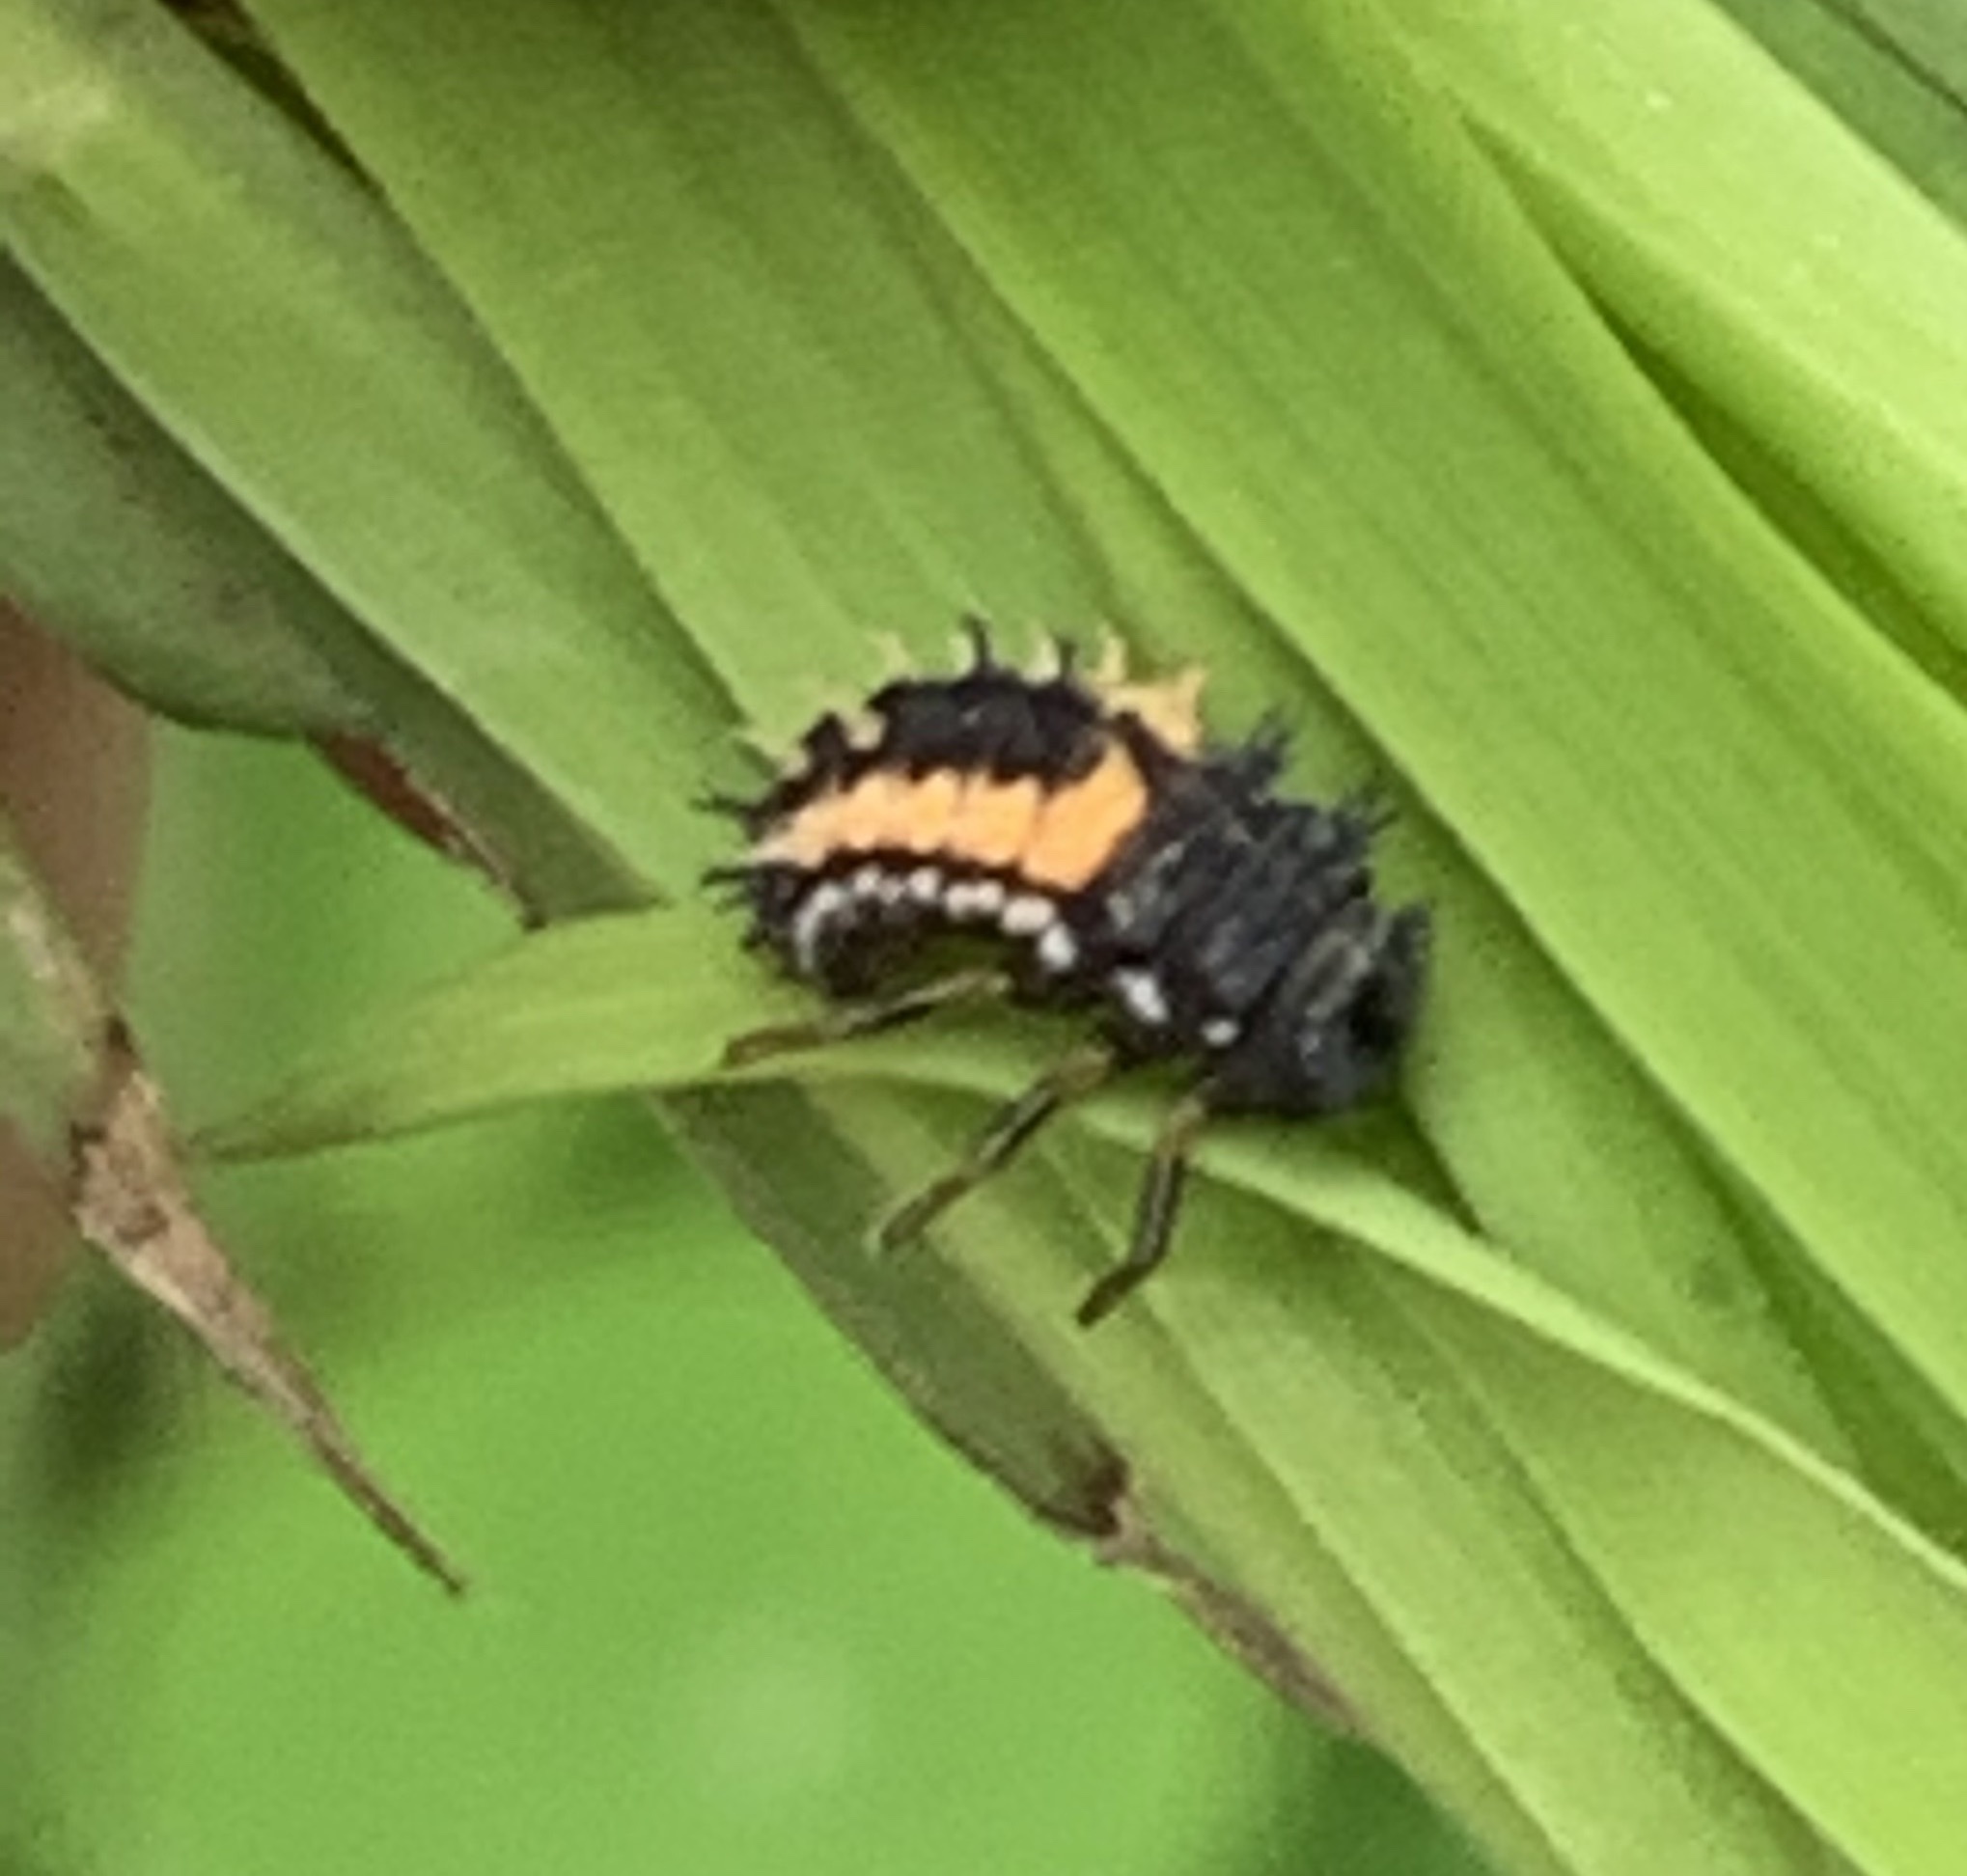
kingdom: Animalia
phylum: Arthropoda
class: Insecta
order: Coleoptera
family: Coccinellidae
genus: Harmonia
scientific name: Harmonia axyridis
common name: Harlequin ladybird
